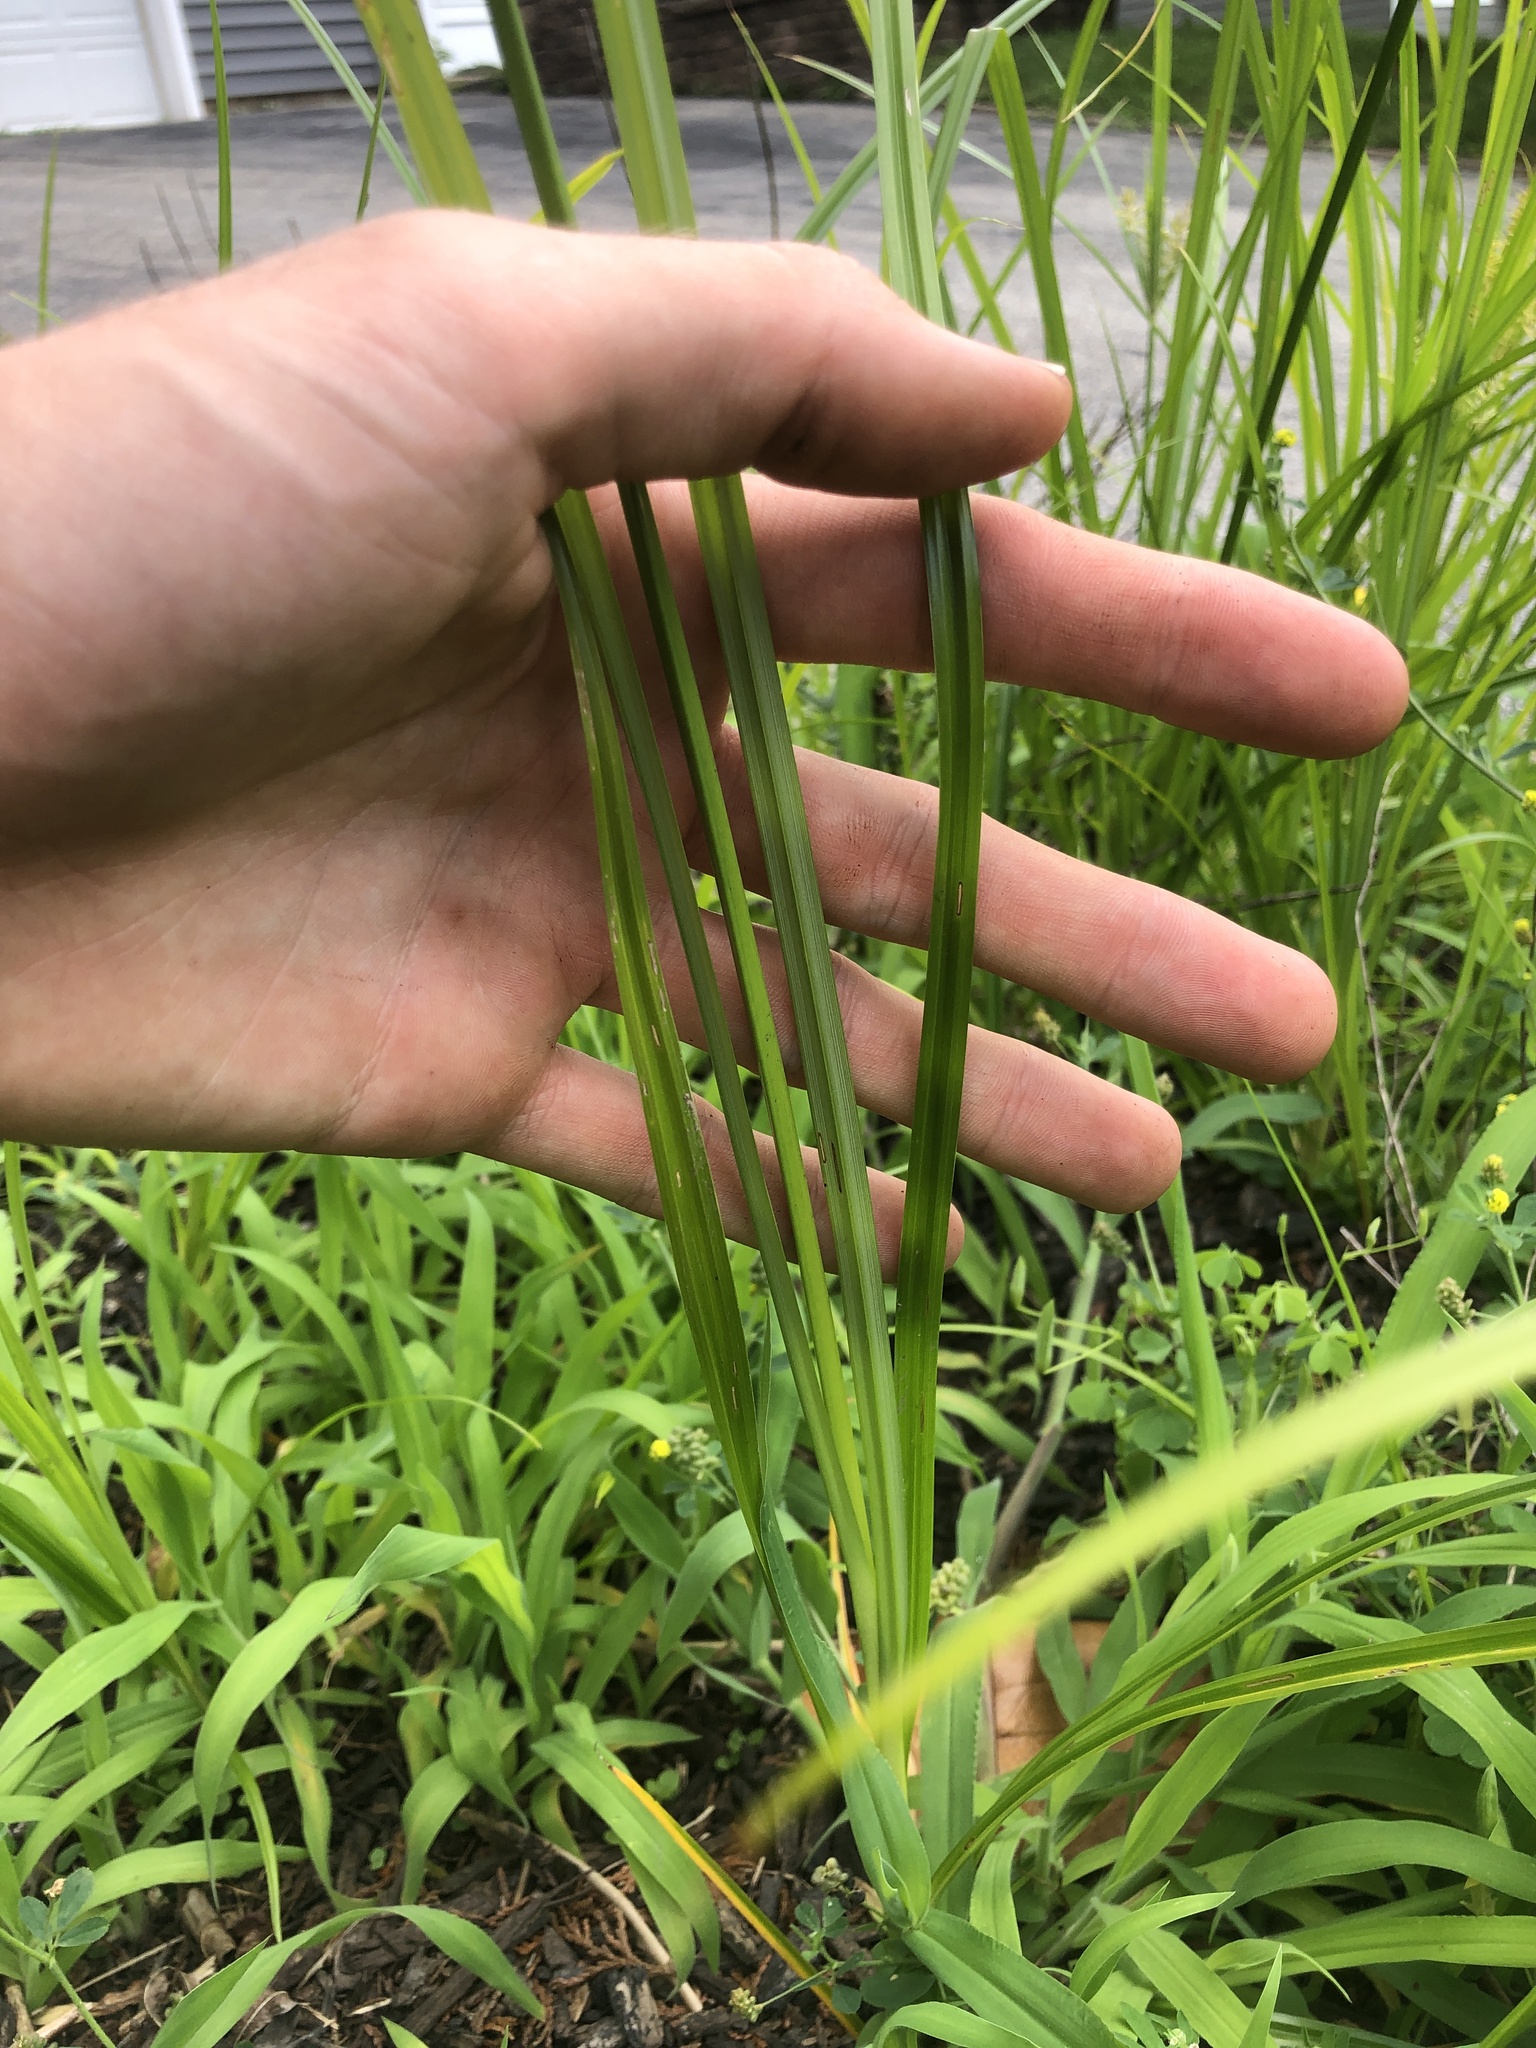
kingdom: Plantae
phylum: Tracheophyta
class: Liliopsida
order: Poales
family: Cyperaceae
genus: Cyperus
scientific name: Cyperus esculentus
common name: Yellow nutsedge
